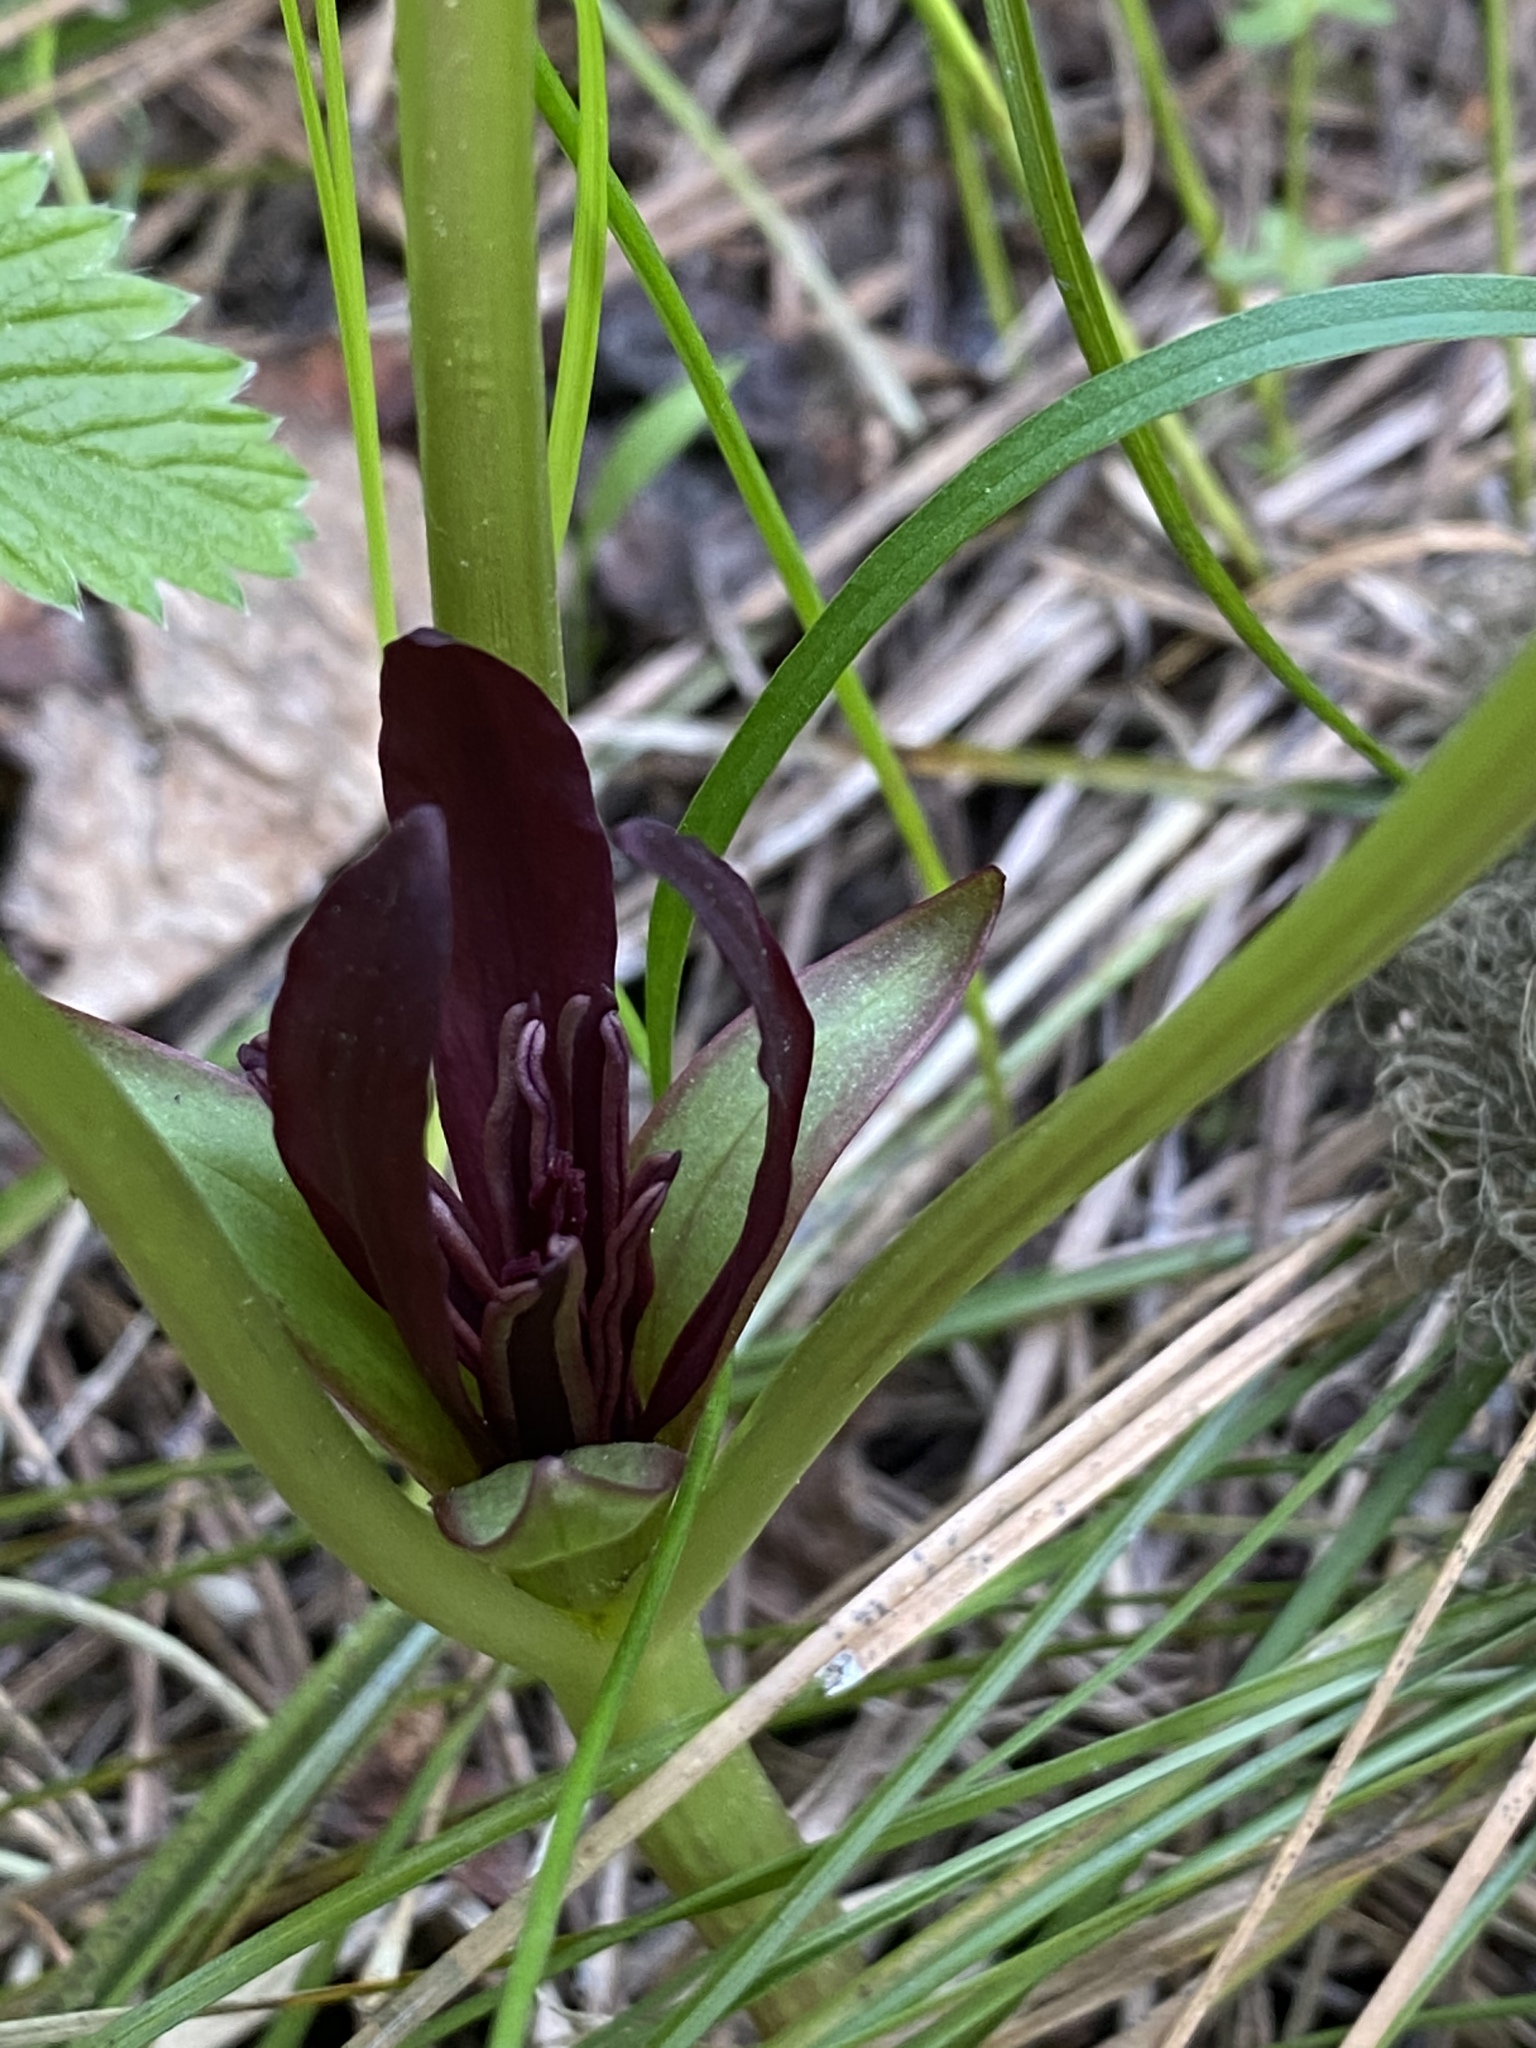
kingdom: Plantae
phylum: Tracheophyta
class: Liliopsida
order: Liliales
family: Melanthiaceae
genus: Trillium
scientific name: Trillium petiolatum
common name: Idaho trillium
